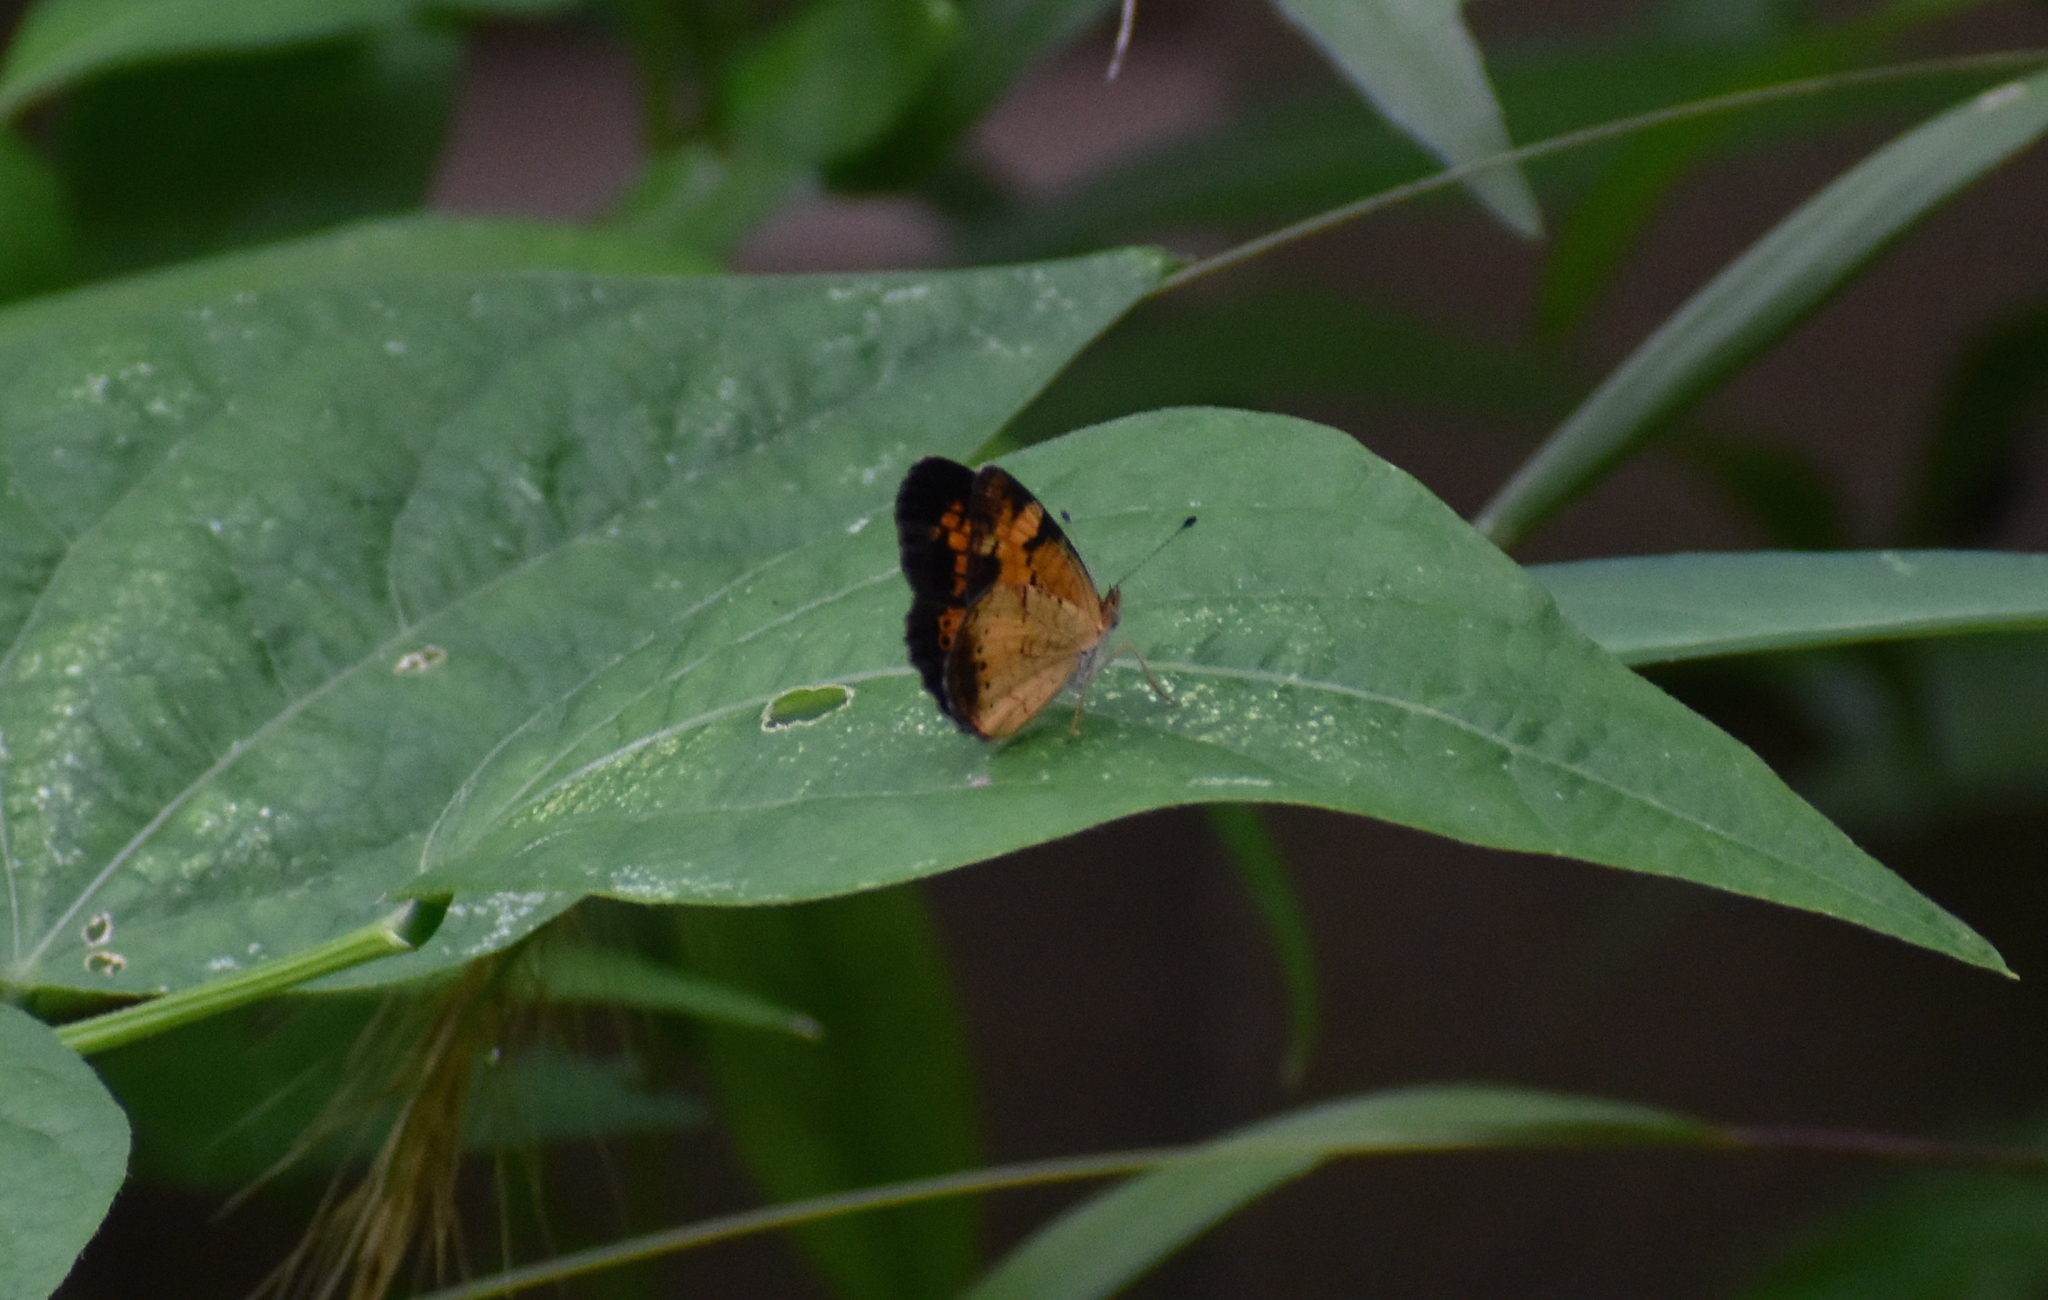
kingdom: Animalia
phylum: Arthropoda
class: Insecta
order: Lepidoptera
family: Nymphalidae
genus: Phyciodes
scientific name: Phyciodes tharos
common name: Pearl crescent
